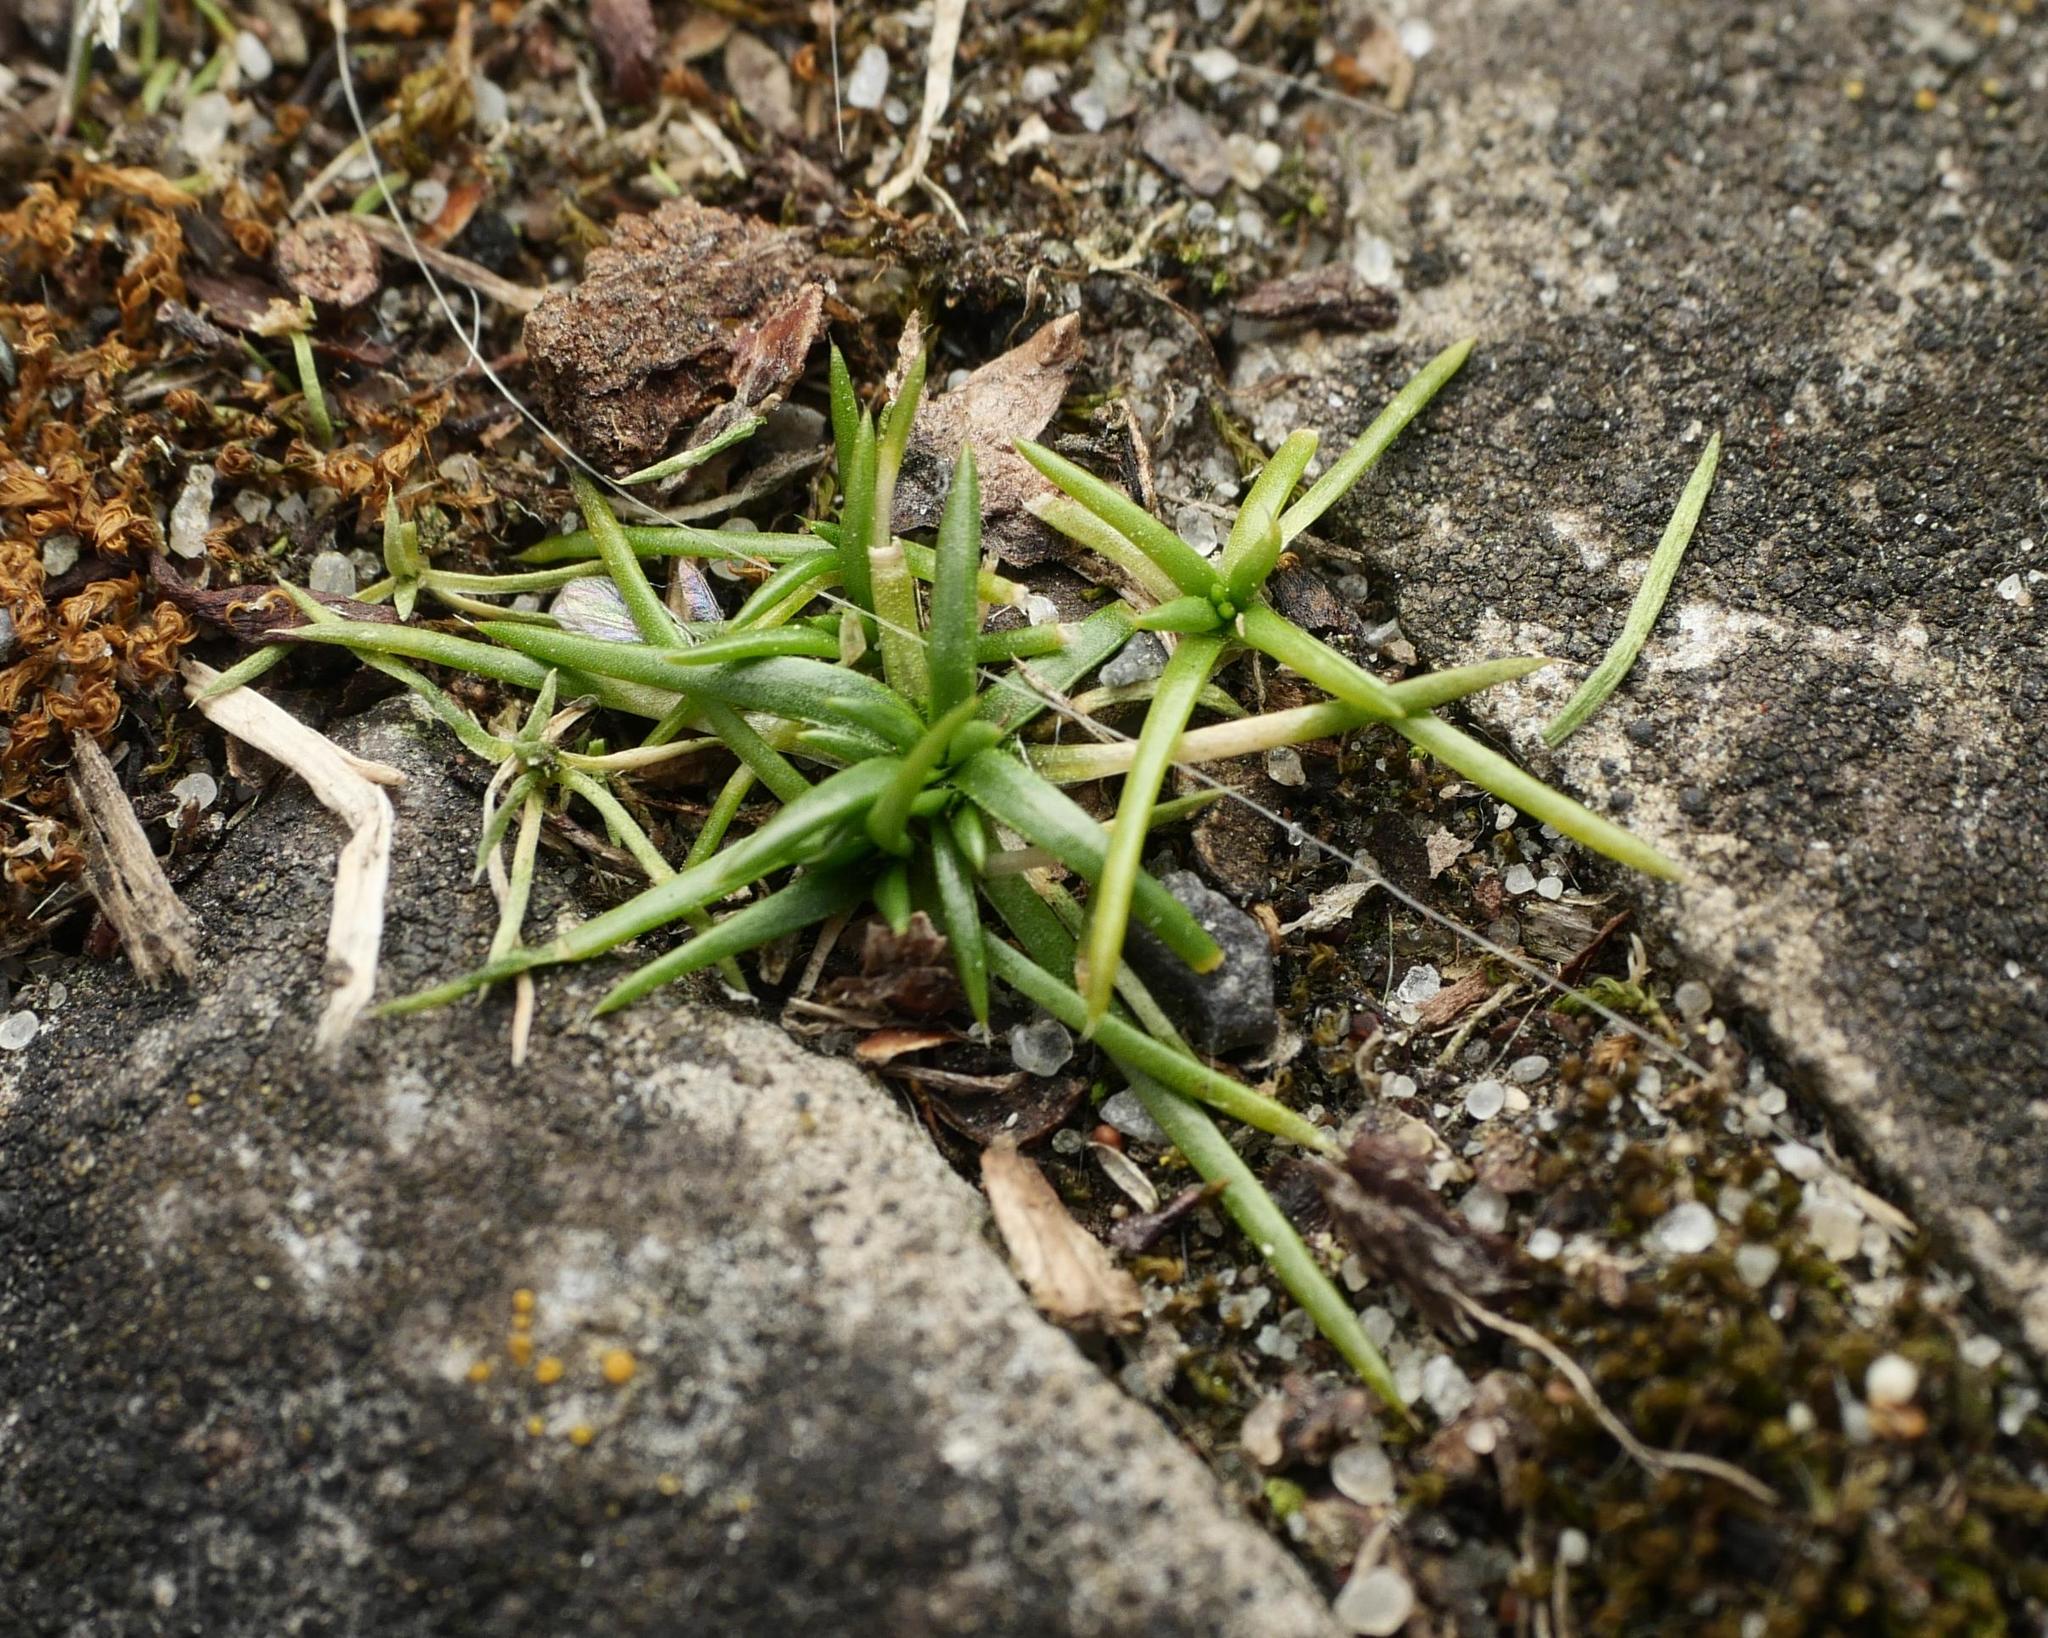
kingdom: Plantae
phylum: Tracheophyta
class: Magnoliopsida
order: Caryophyllales
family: Caryophyllaceae
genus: Sagina
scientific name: Sagina procumbens
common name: Procumbent pearlwort
